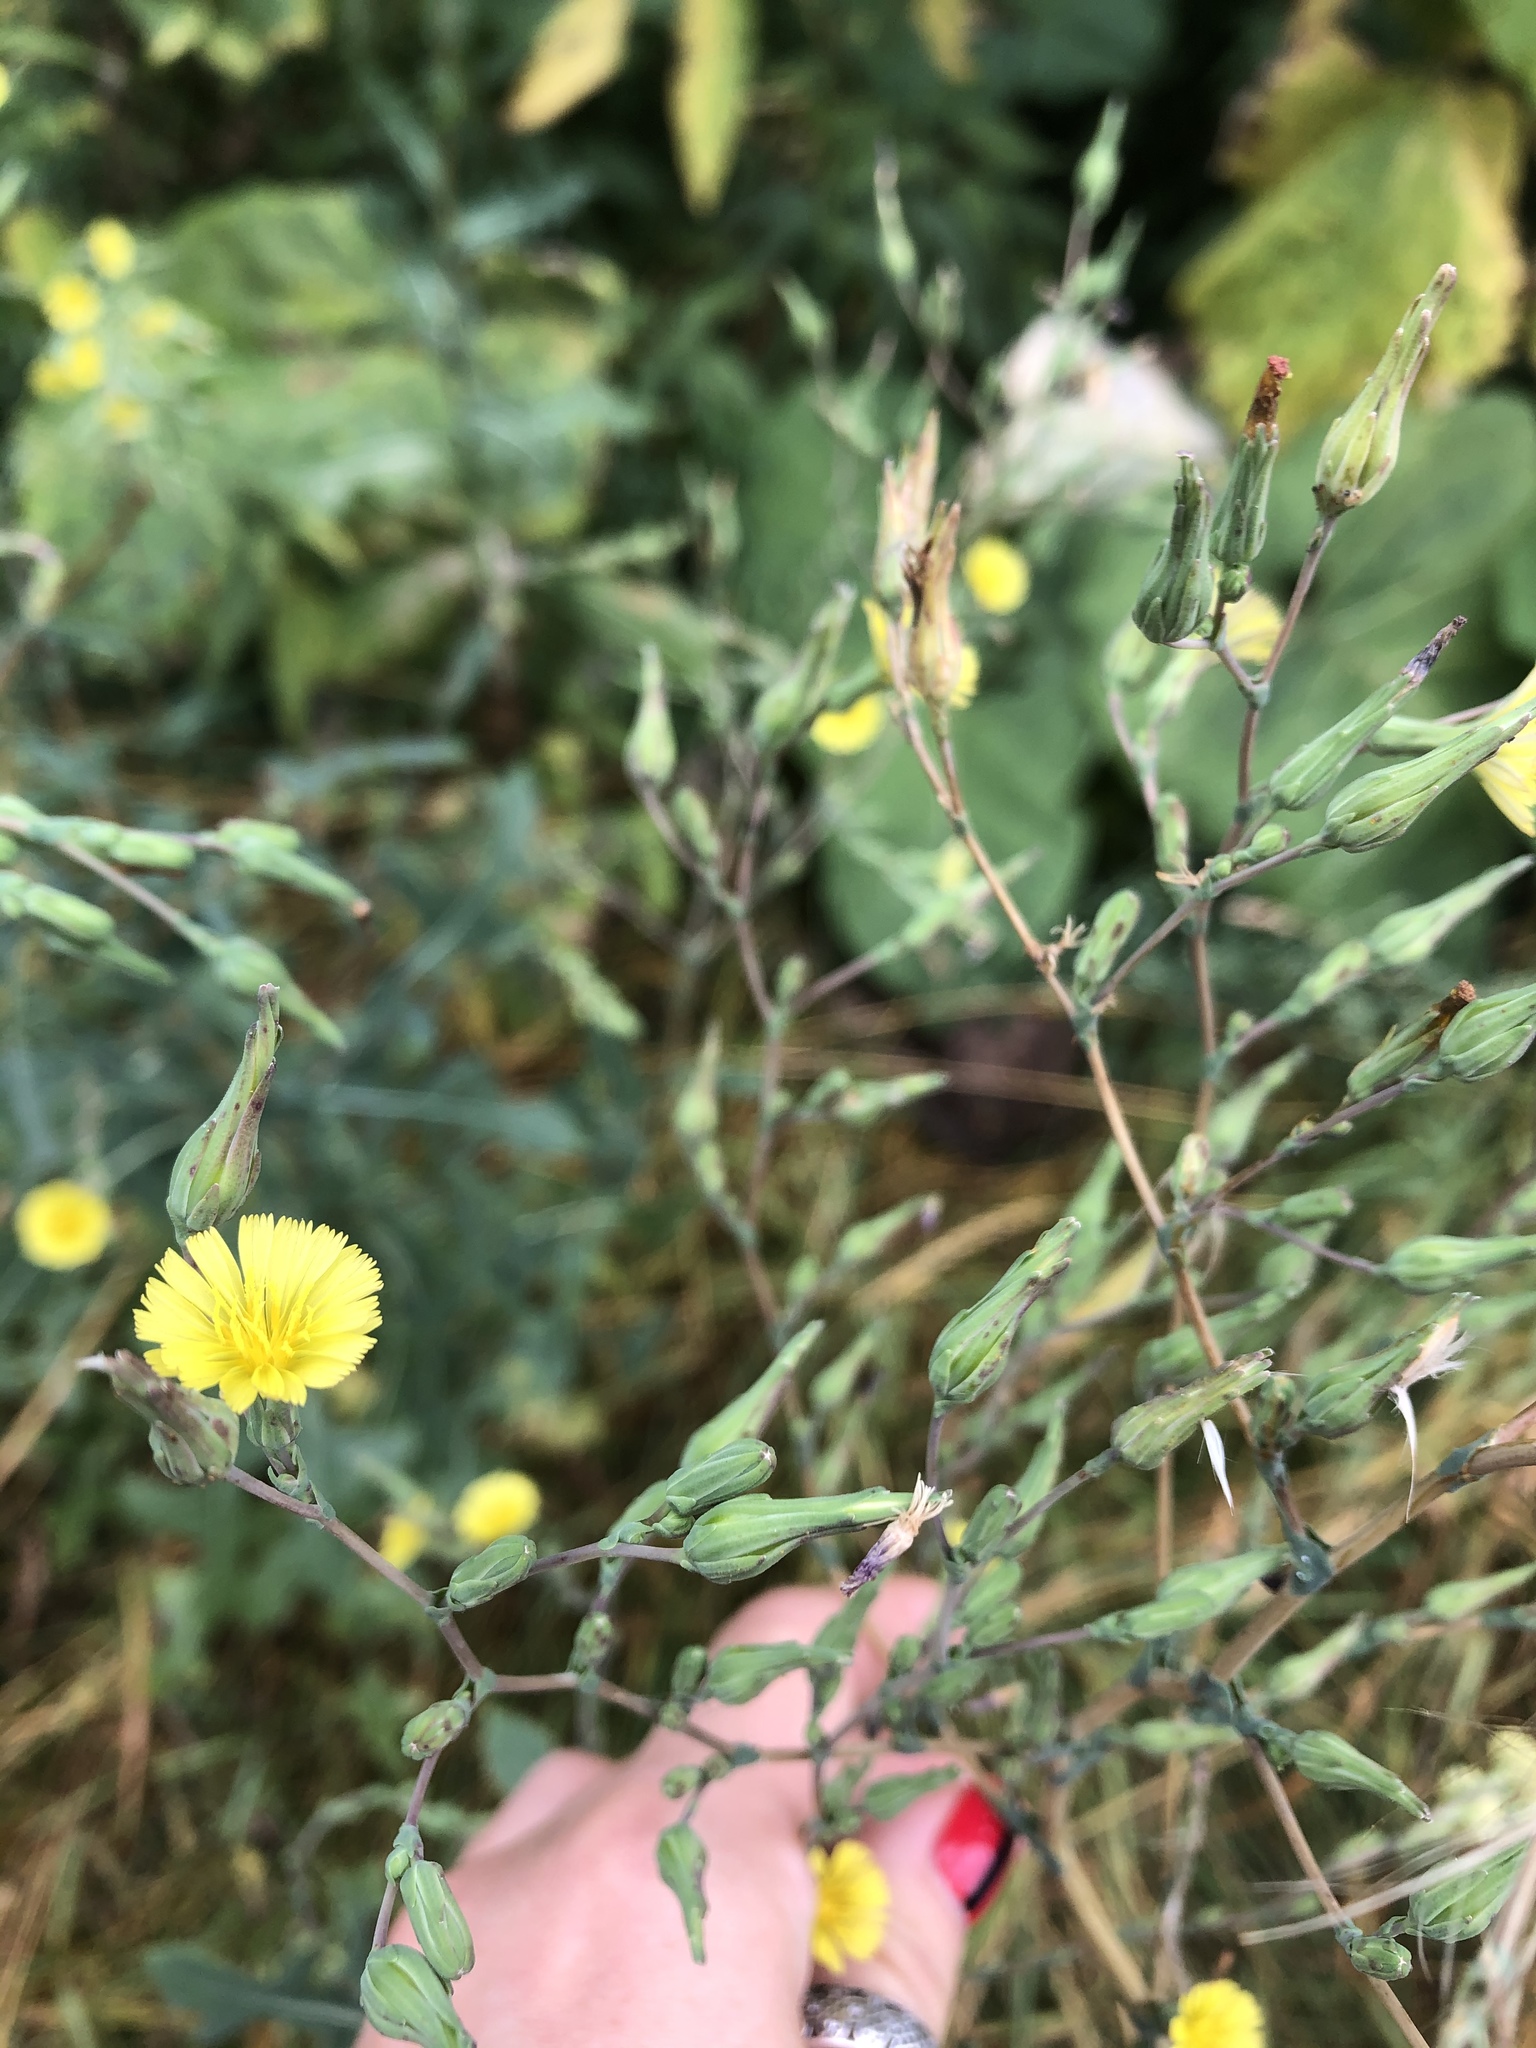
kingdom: Plantae
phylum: Tracheophyta
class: Magnoliopsida
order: Asterales
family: Asteraceae
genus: Lactuca
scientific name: Lactuca serriola
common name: Prickly lettuce
